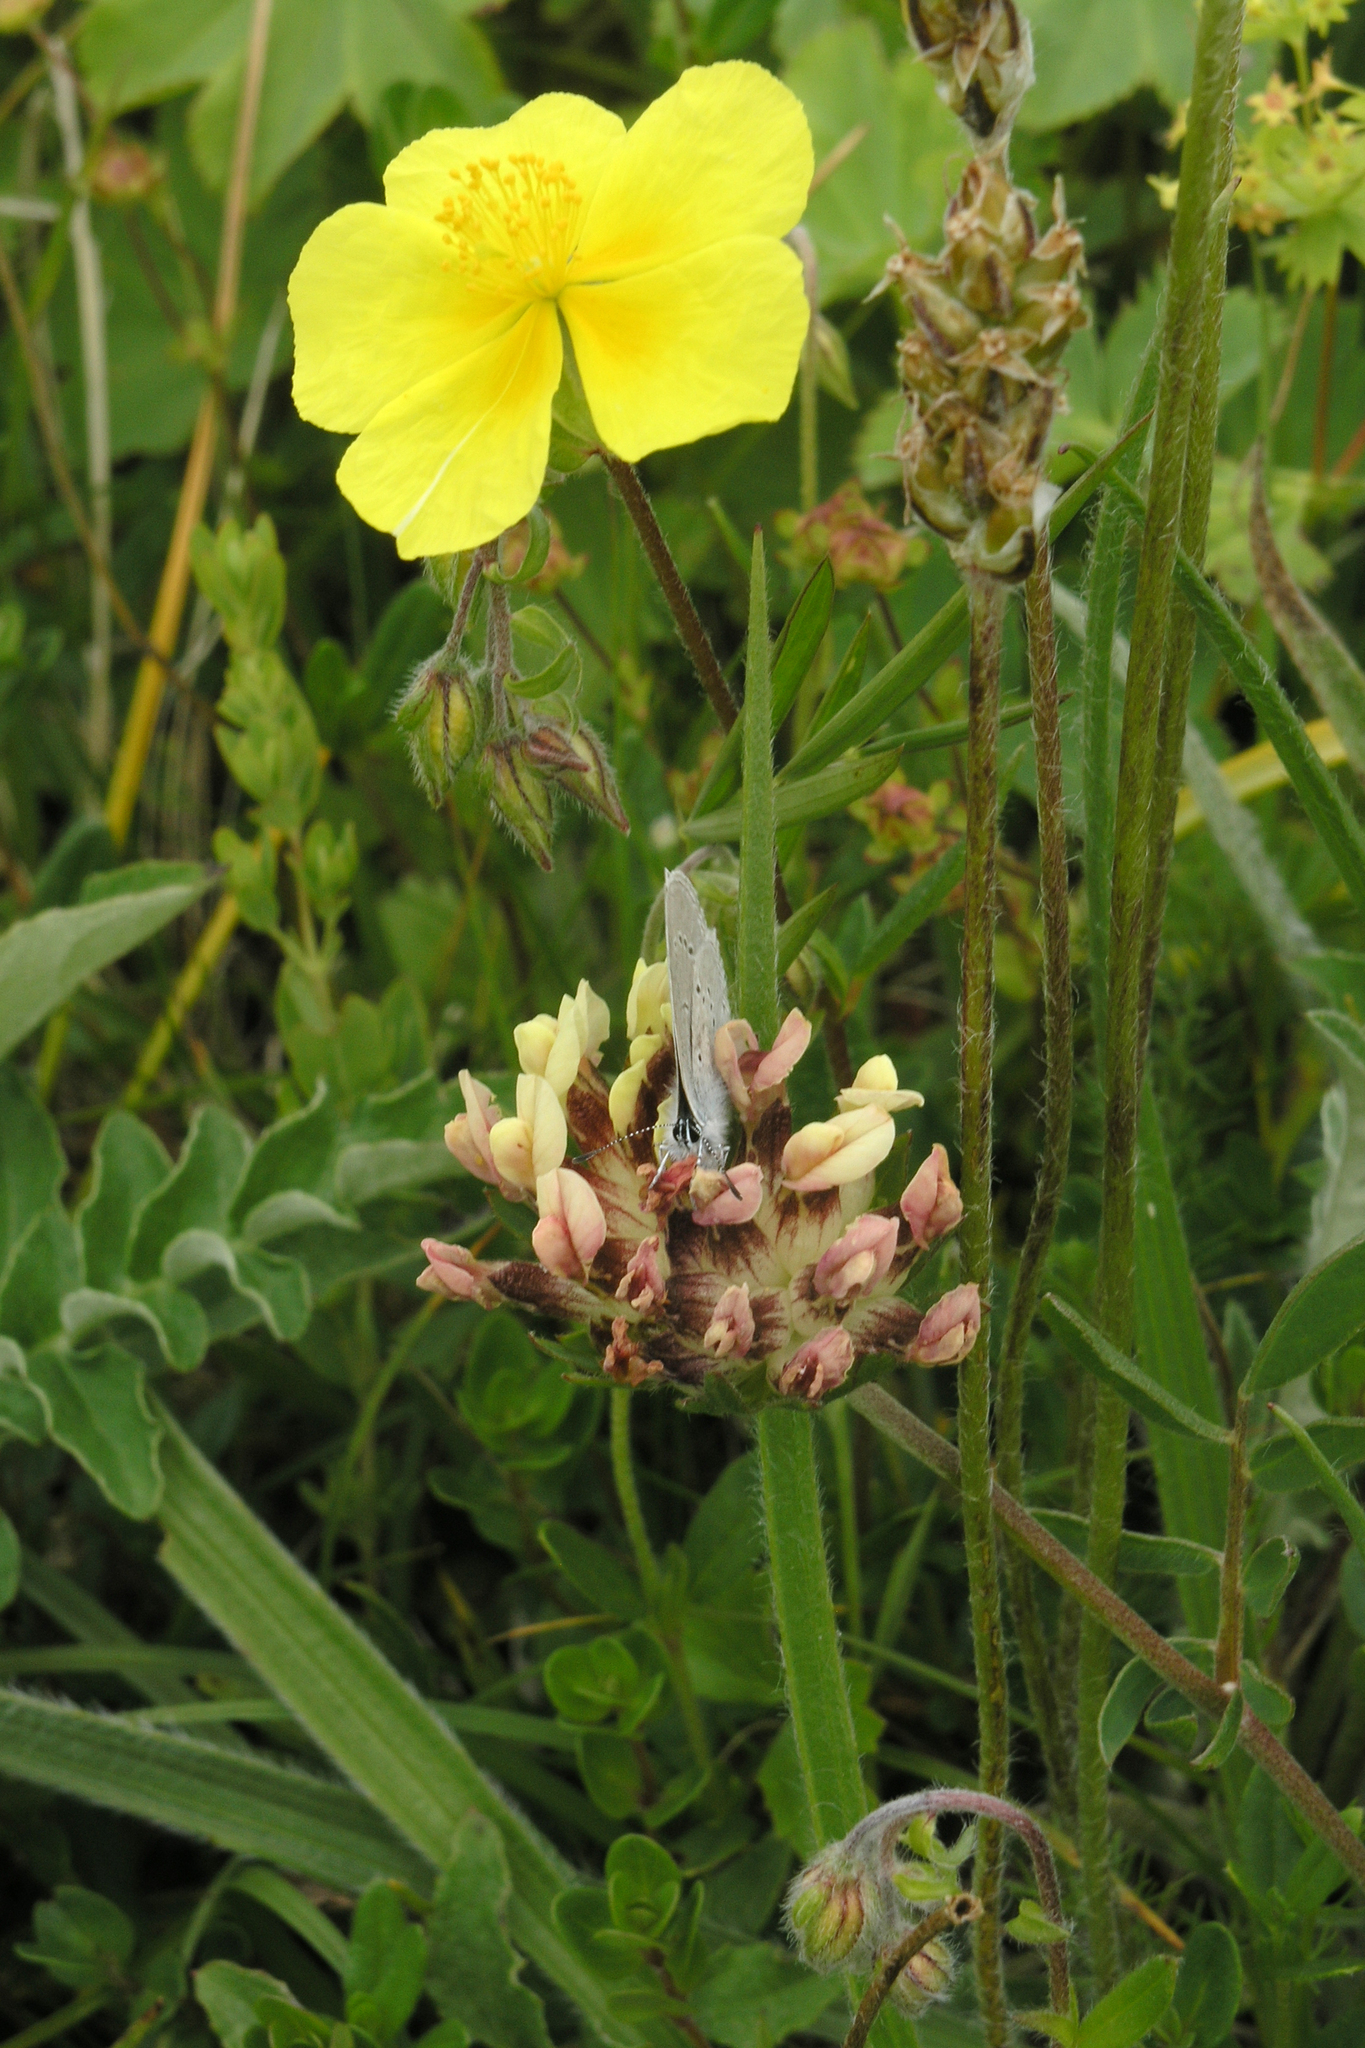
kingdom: Plantae
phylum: Tracheophyta
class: Magnoliopsida
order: Fabales
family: Fabaceae
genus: Anthyllis
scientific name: Anthyllis vulneraria
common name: Kidney vetch
